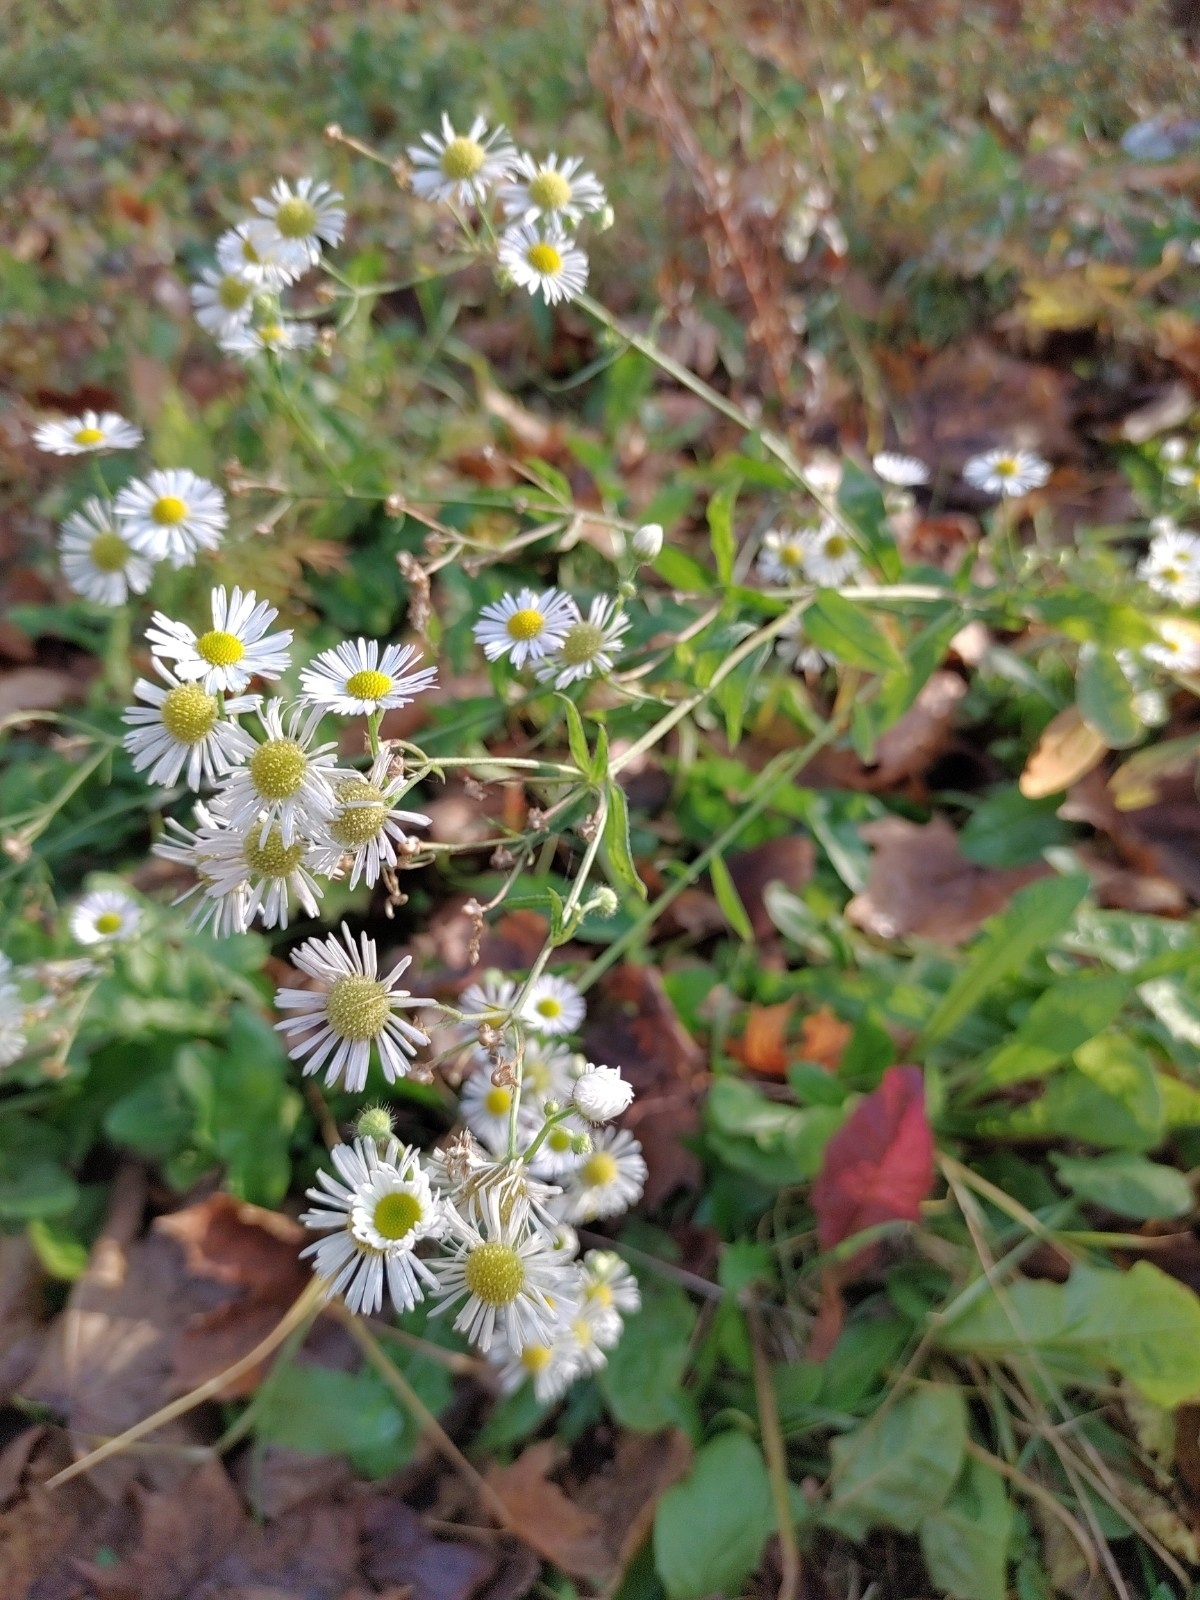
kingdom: Plantae
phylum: Tracheophyta
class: Magnoliopsida
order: Asterales
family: Asteraceae
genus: Erigeron
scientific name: Erigeron annuus
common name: Tall fleabane
